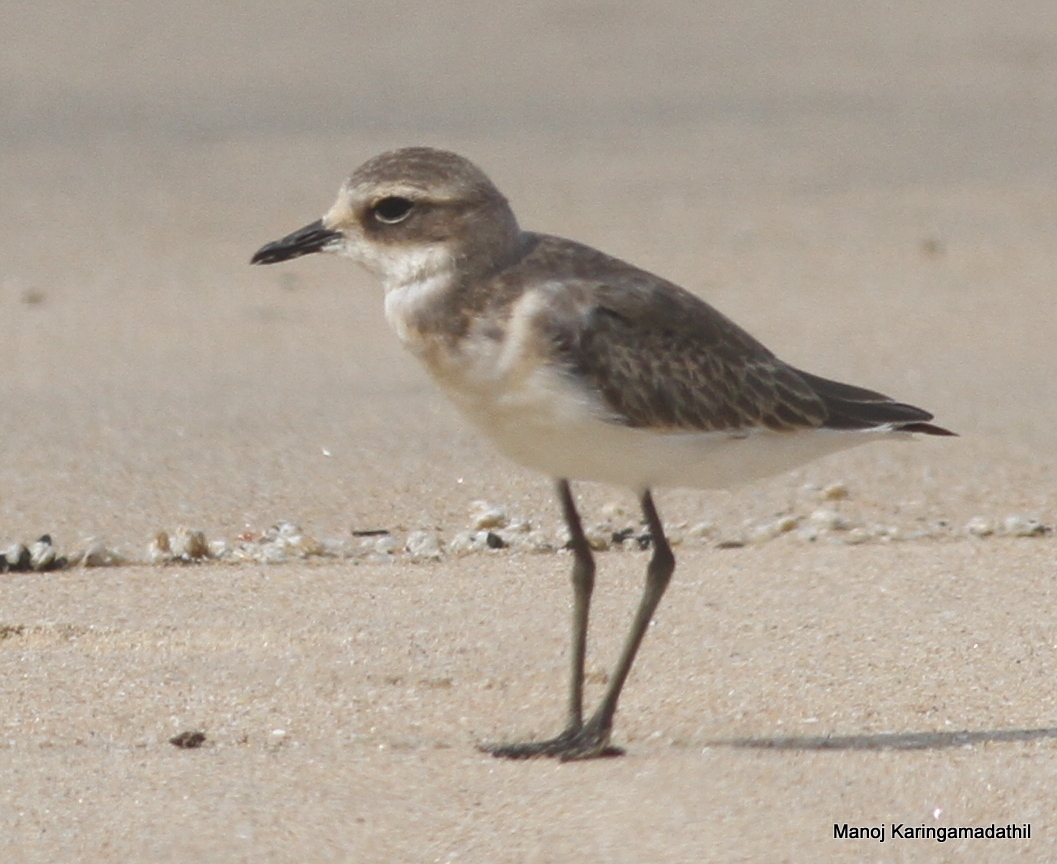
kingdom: Animalia
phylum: Chordata
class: Aves
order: Charadriiformes
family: Charadriidae
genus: Anarhynchus
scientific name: Anarhynchus
